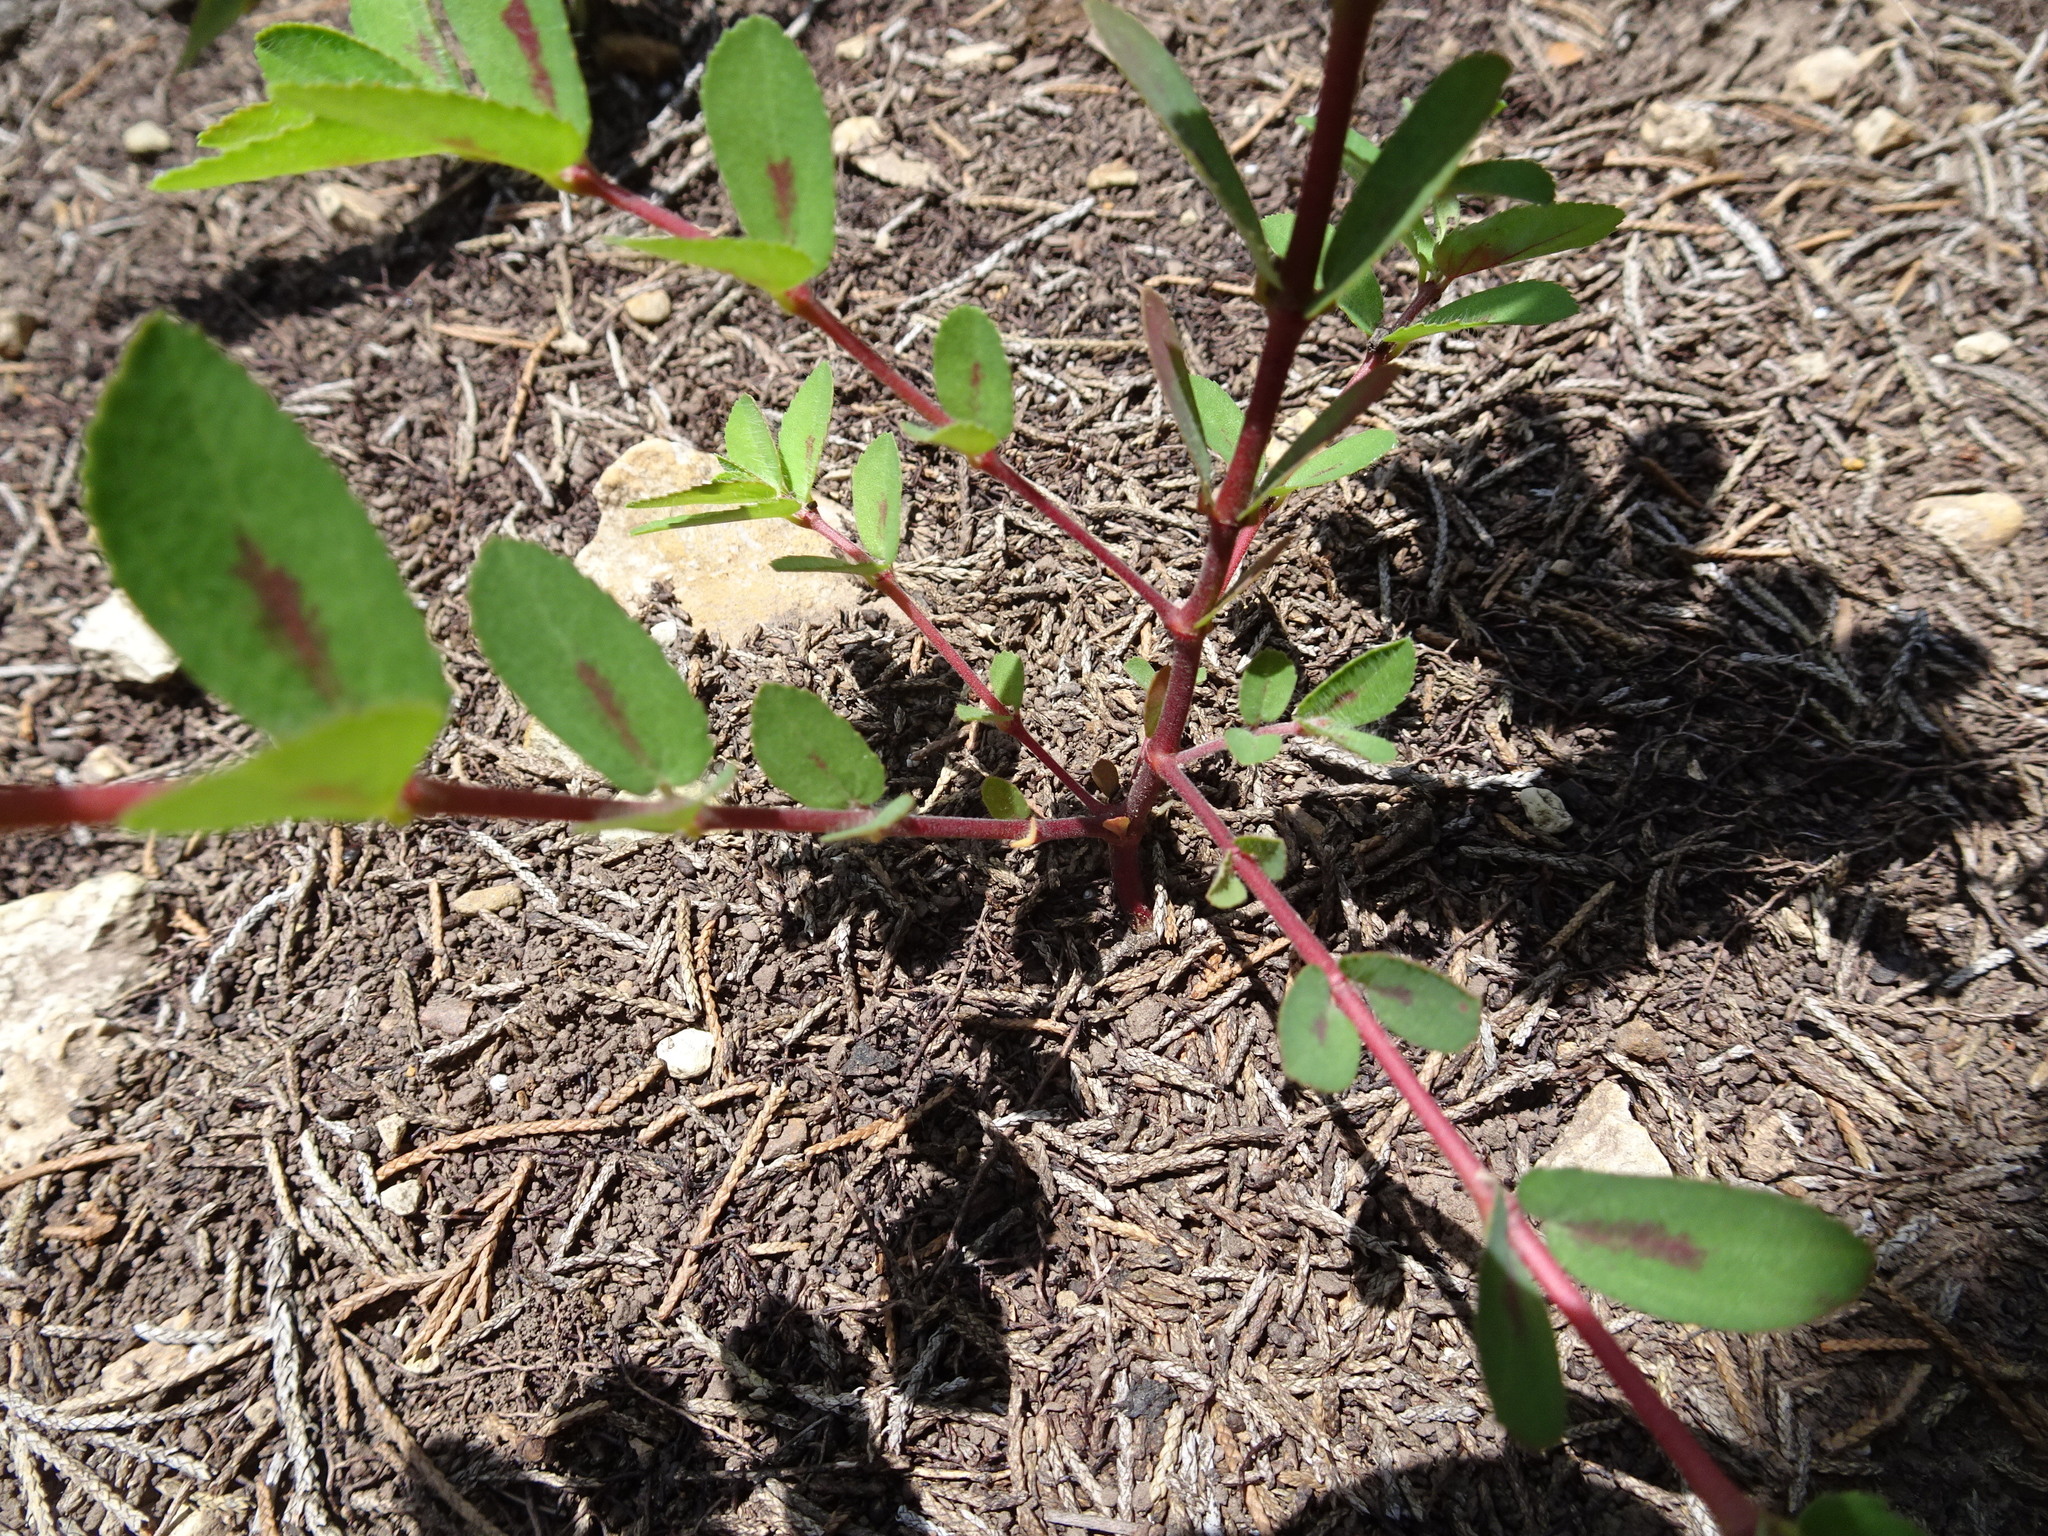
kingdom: Plantae
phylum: Tracheophyta
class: Magnoliopsida
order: Malpighiales
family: Euphorbiaceae
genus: Euphorbia
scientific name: Euphorbia nutans
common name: Eyebane
